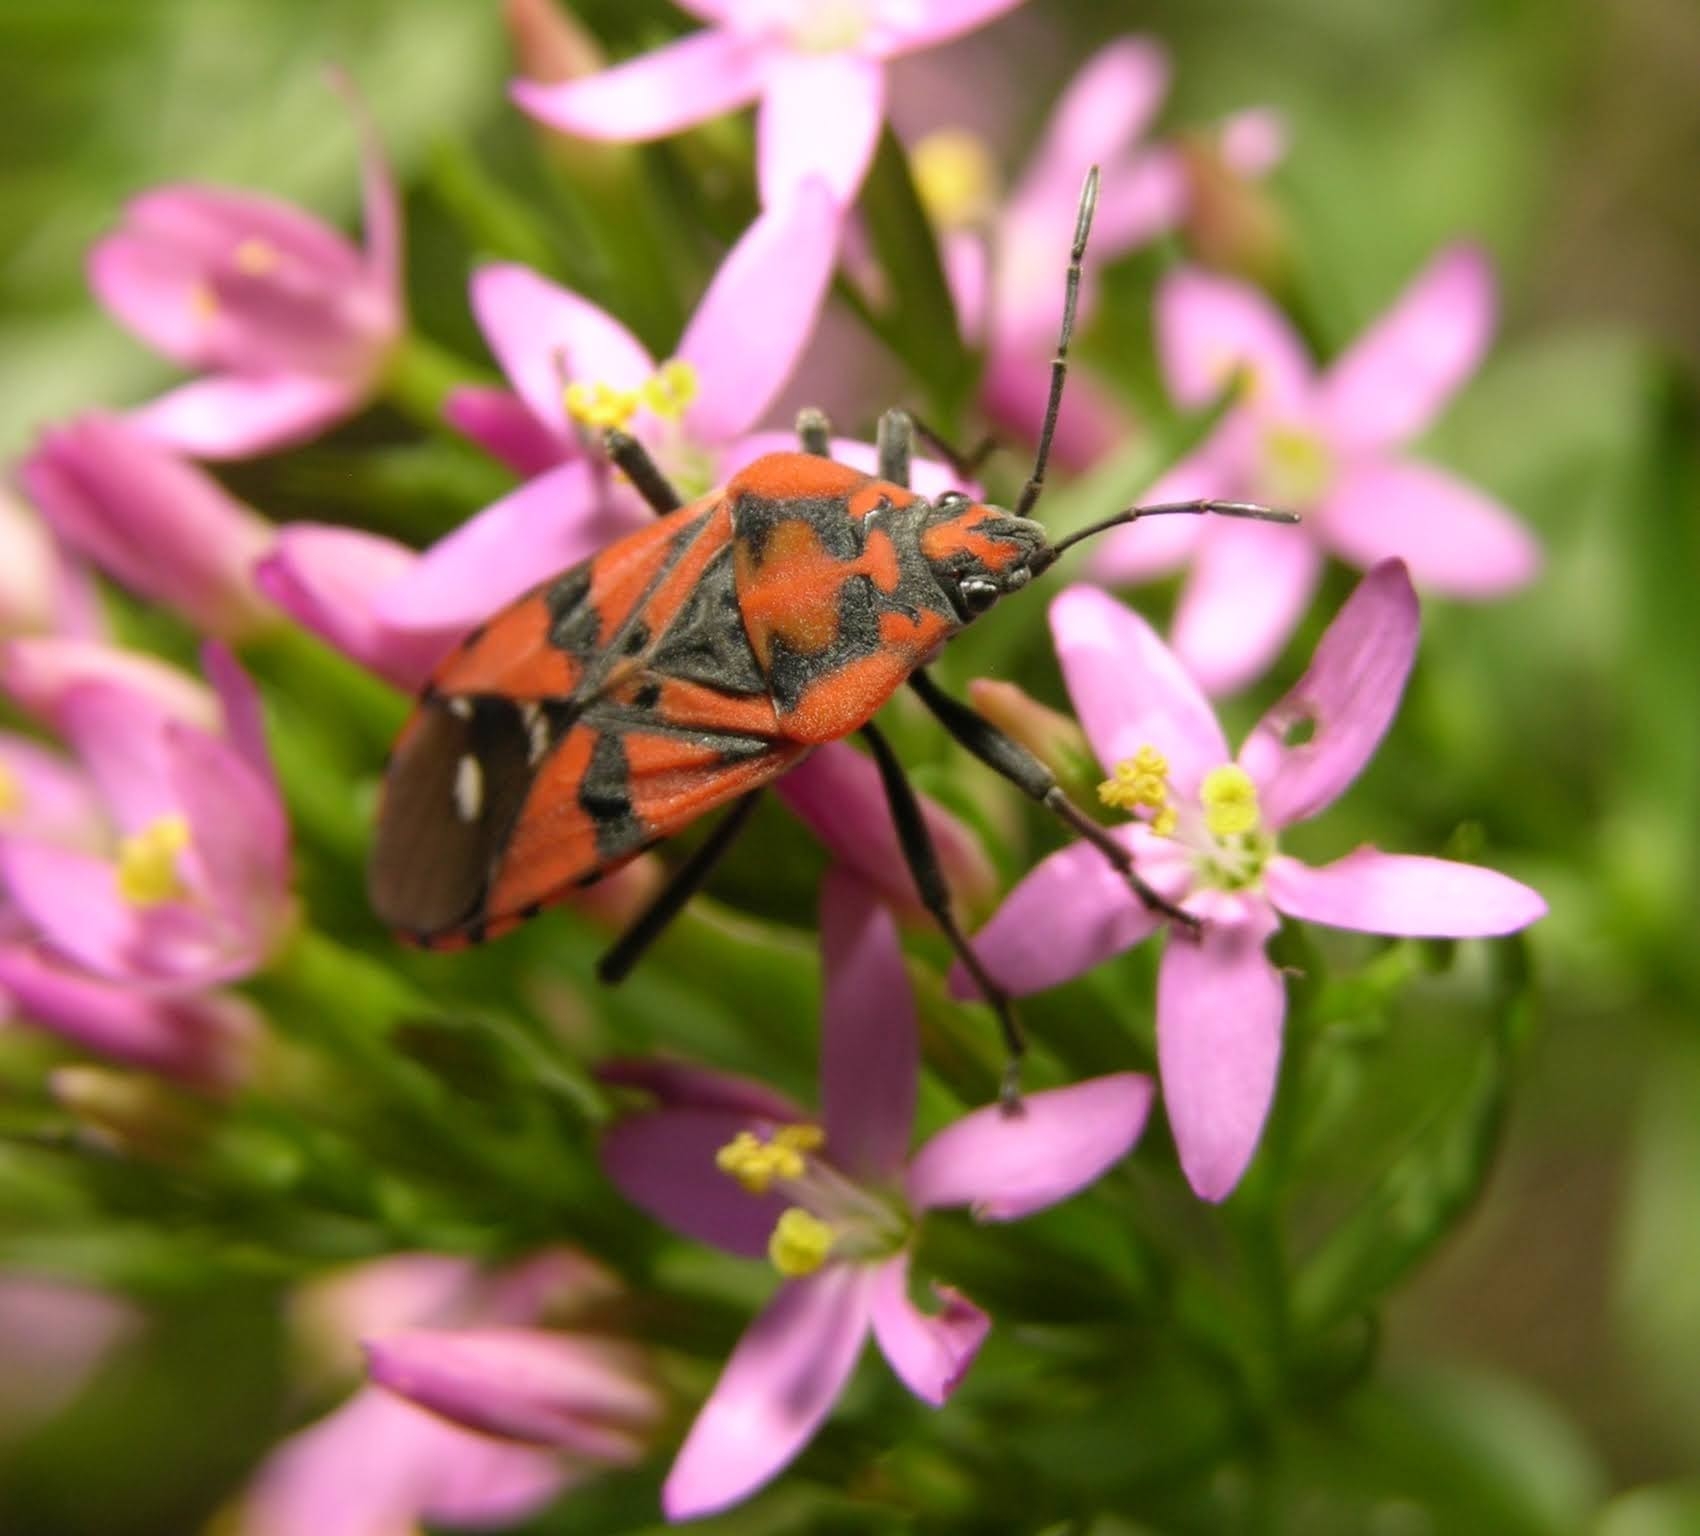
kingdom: Animalia
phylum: Arthropoda
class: Insecta
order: Hemiptera
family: Lygaeidae
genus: Spilostethus
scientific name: Spilostethus pandurus
